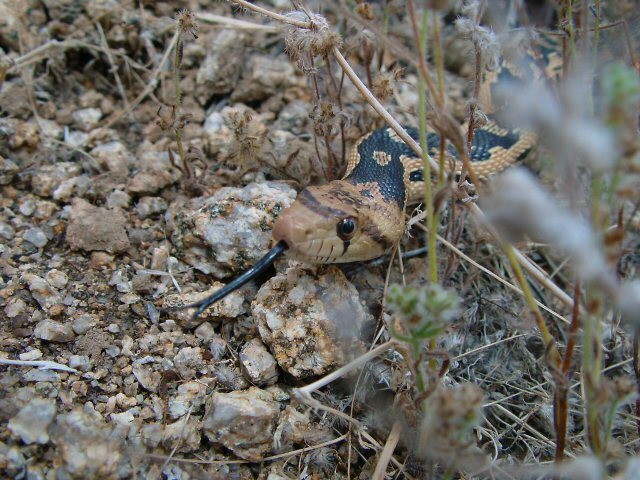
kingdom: Animalia
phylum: Chordata
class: Squamata
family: Colubridae
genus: Pituophis
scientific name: Pituophis catenifer
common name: Gopher snake
